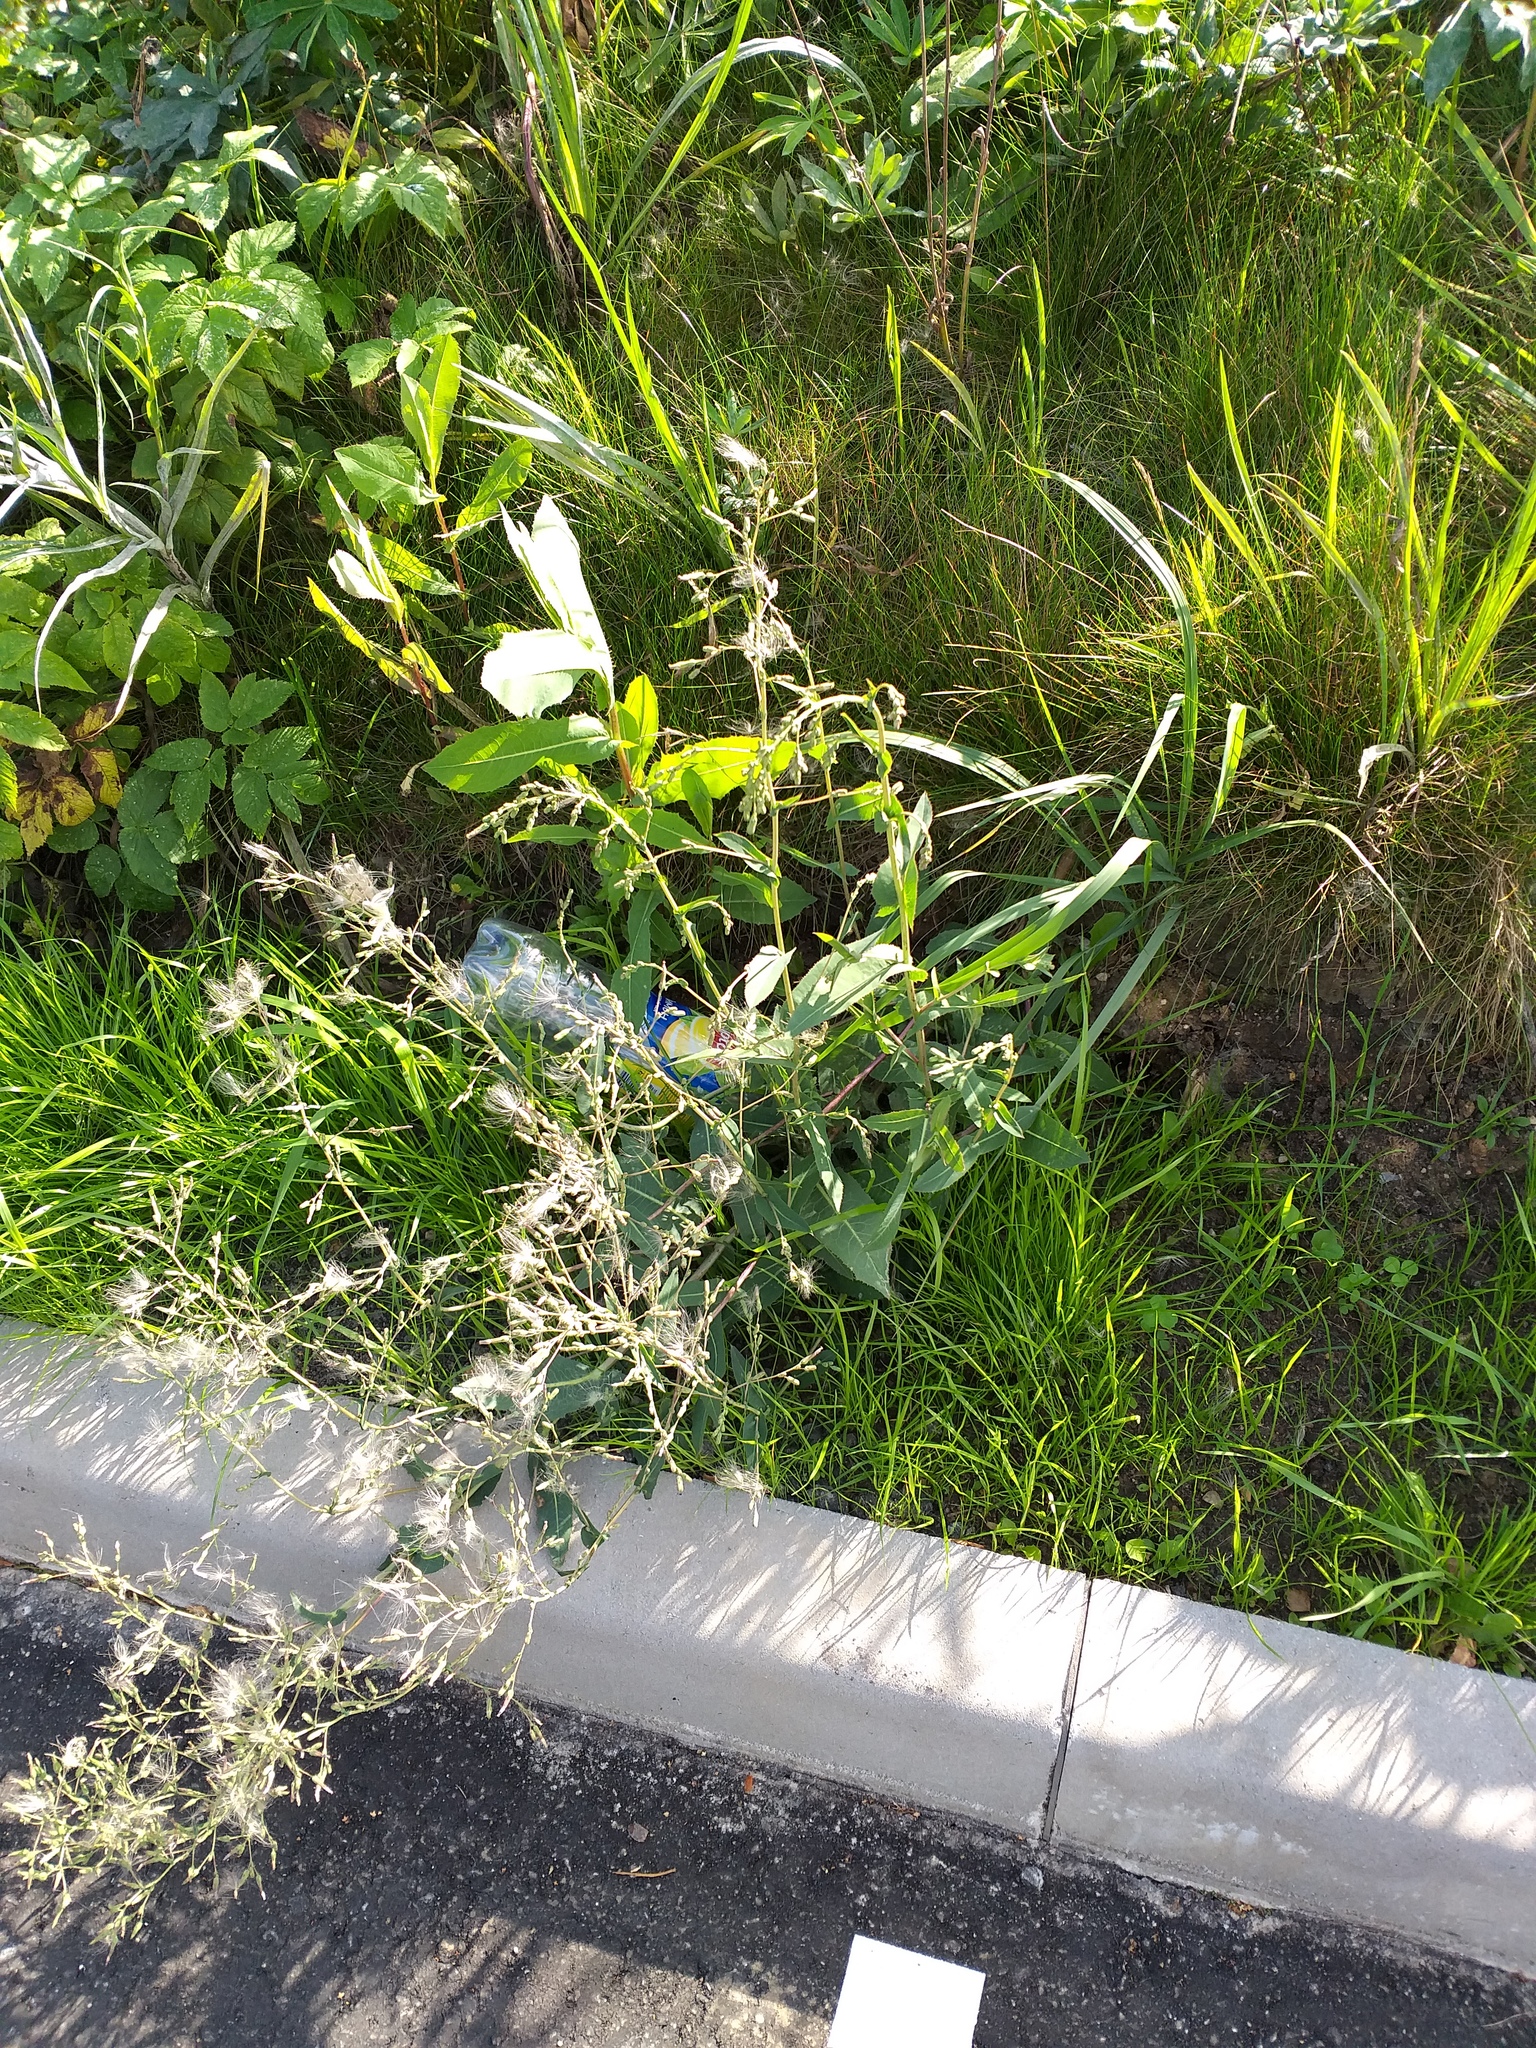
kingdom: Plantae
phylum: Tracheophyta
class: Magnoliopsida
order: Asterales
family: Asteraceae
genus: Lactuca
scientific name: Lactuca serriola
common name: Prickly lettuce
